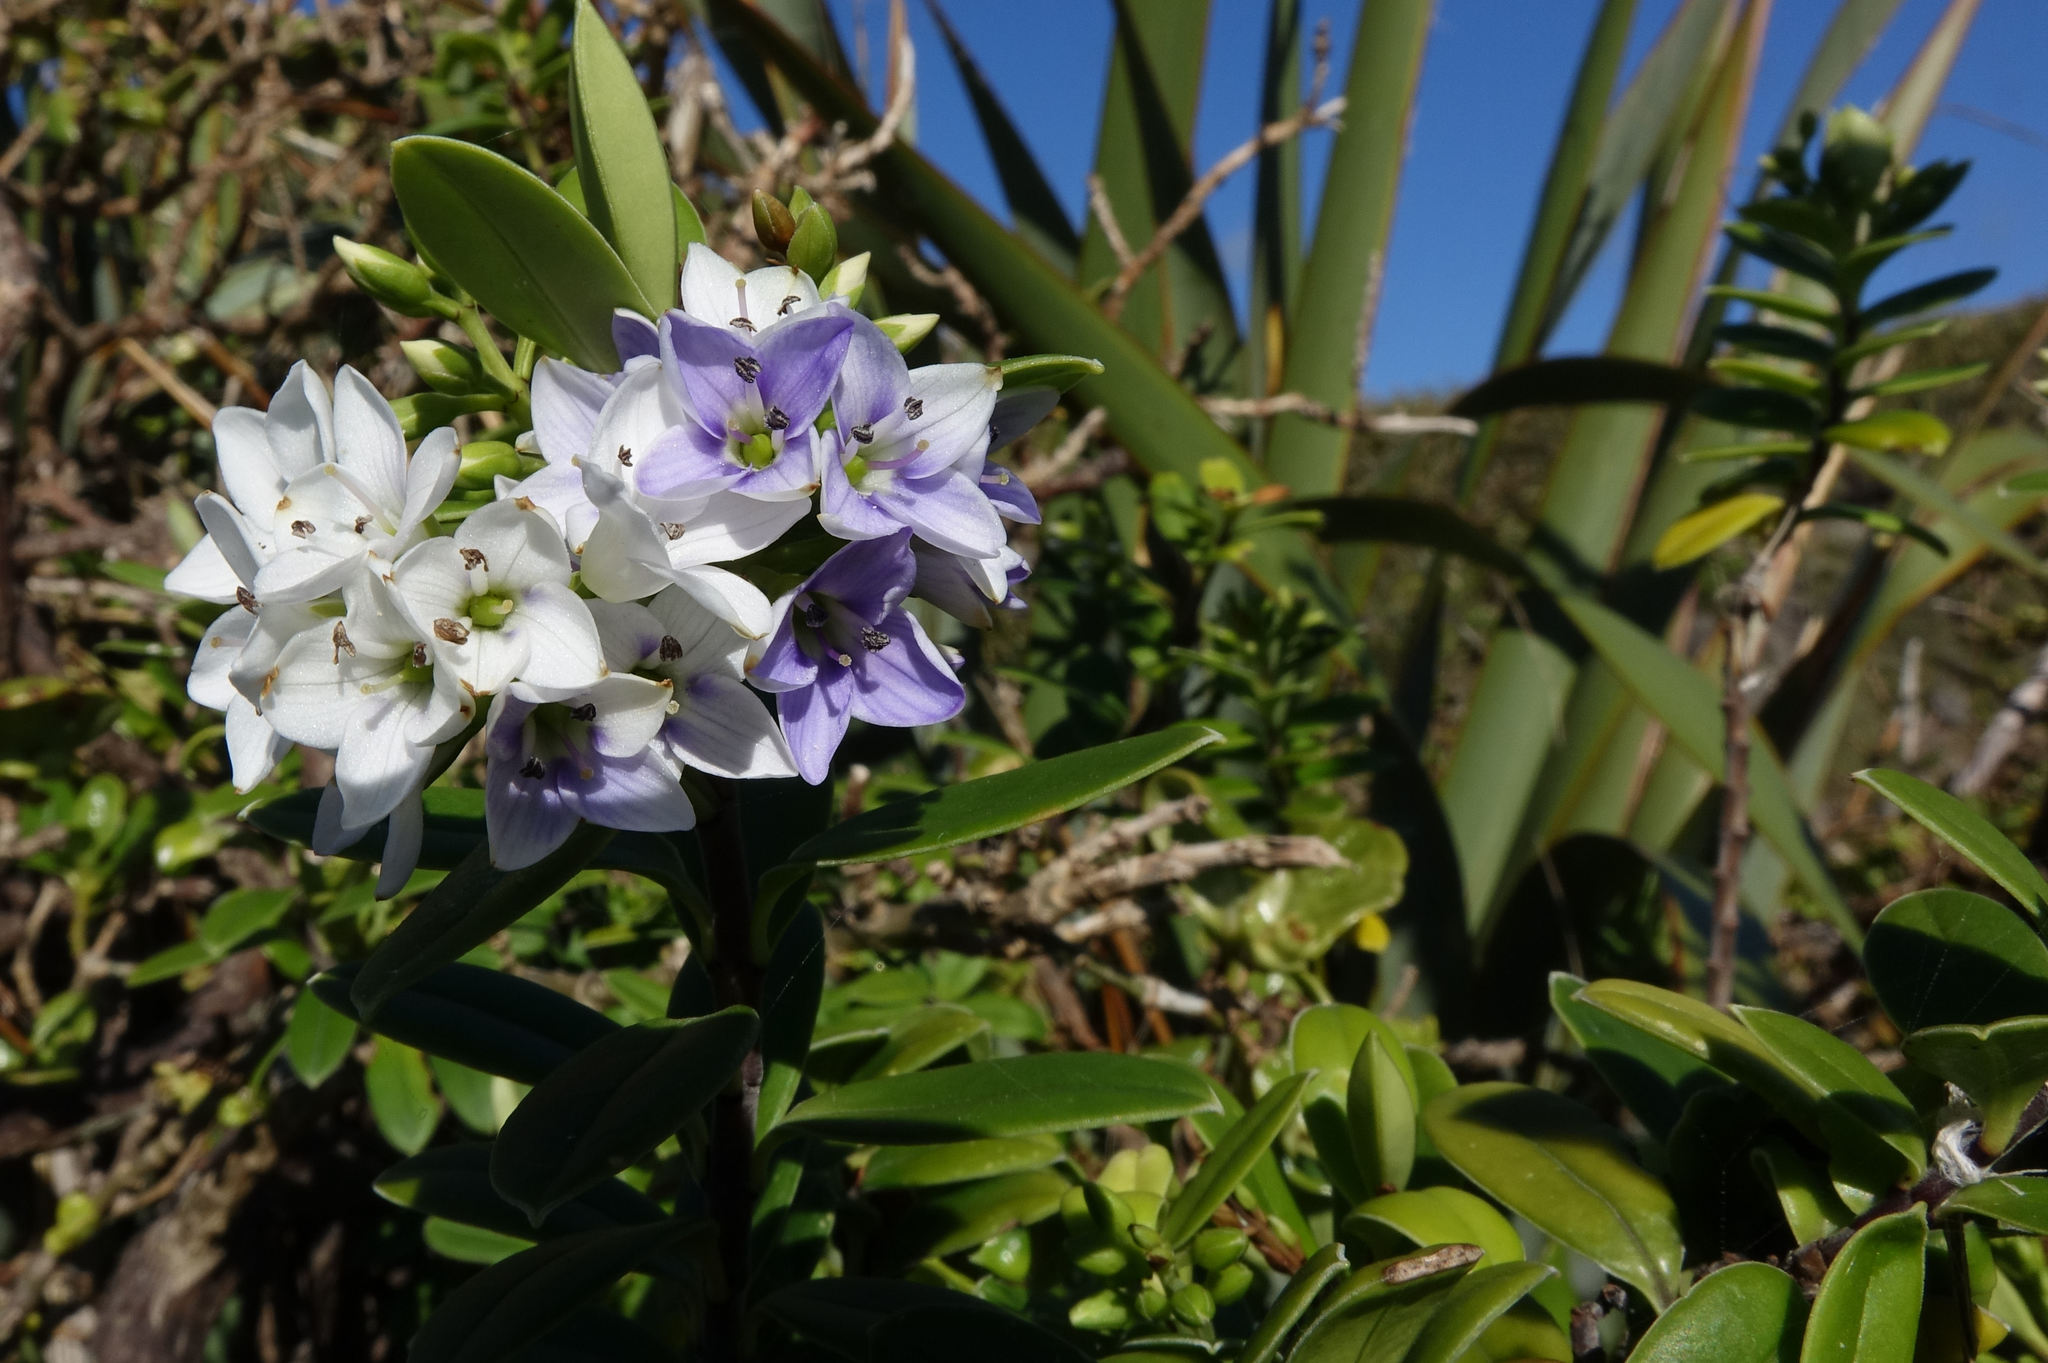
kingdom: Plantae
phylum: Tracheophyta
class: Magnoliopsida
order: Lamiales
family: Plantaginaceae
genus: Veronica
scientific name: Veronica elliptica
